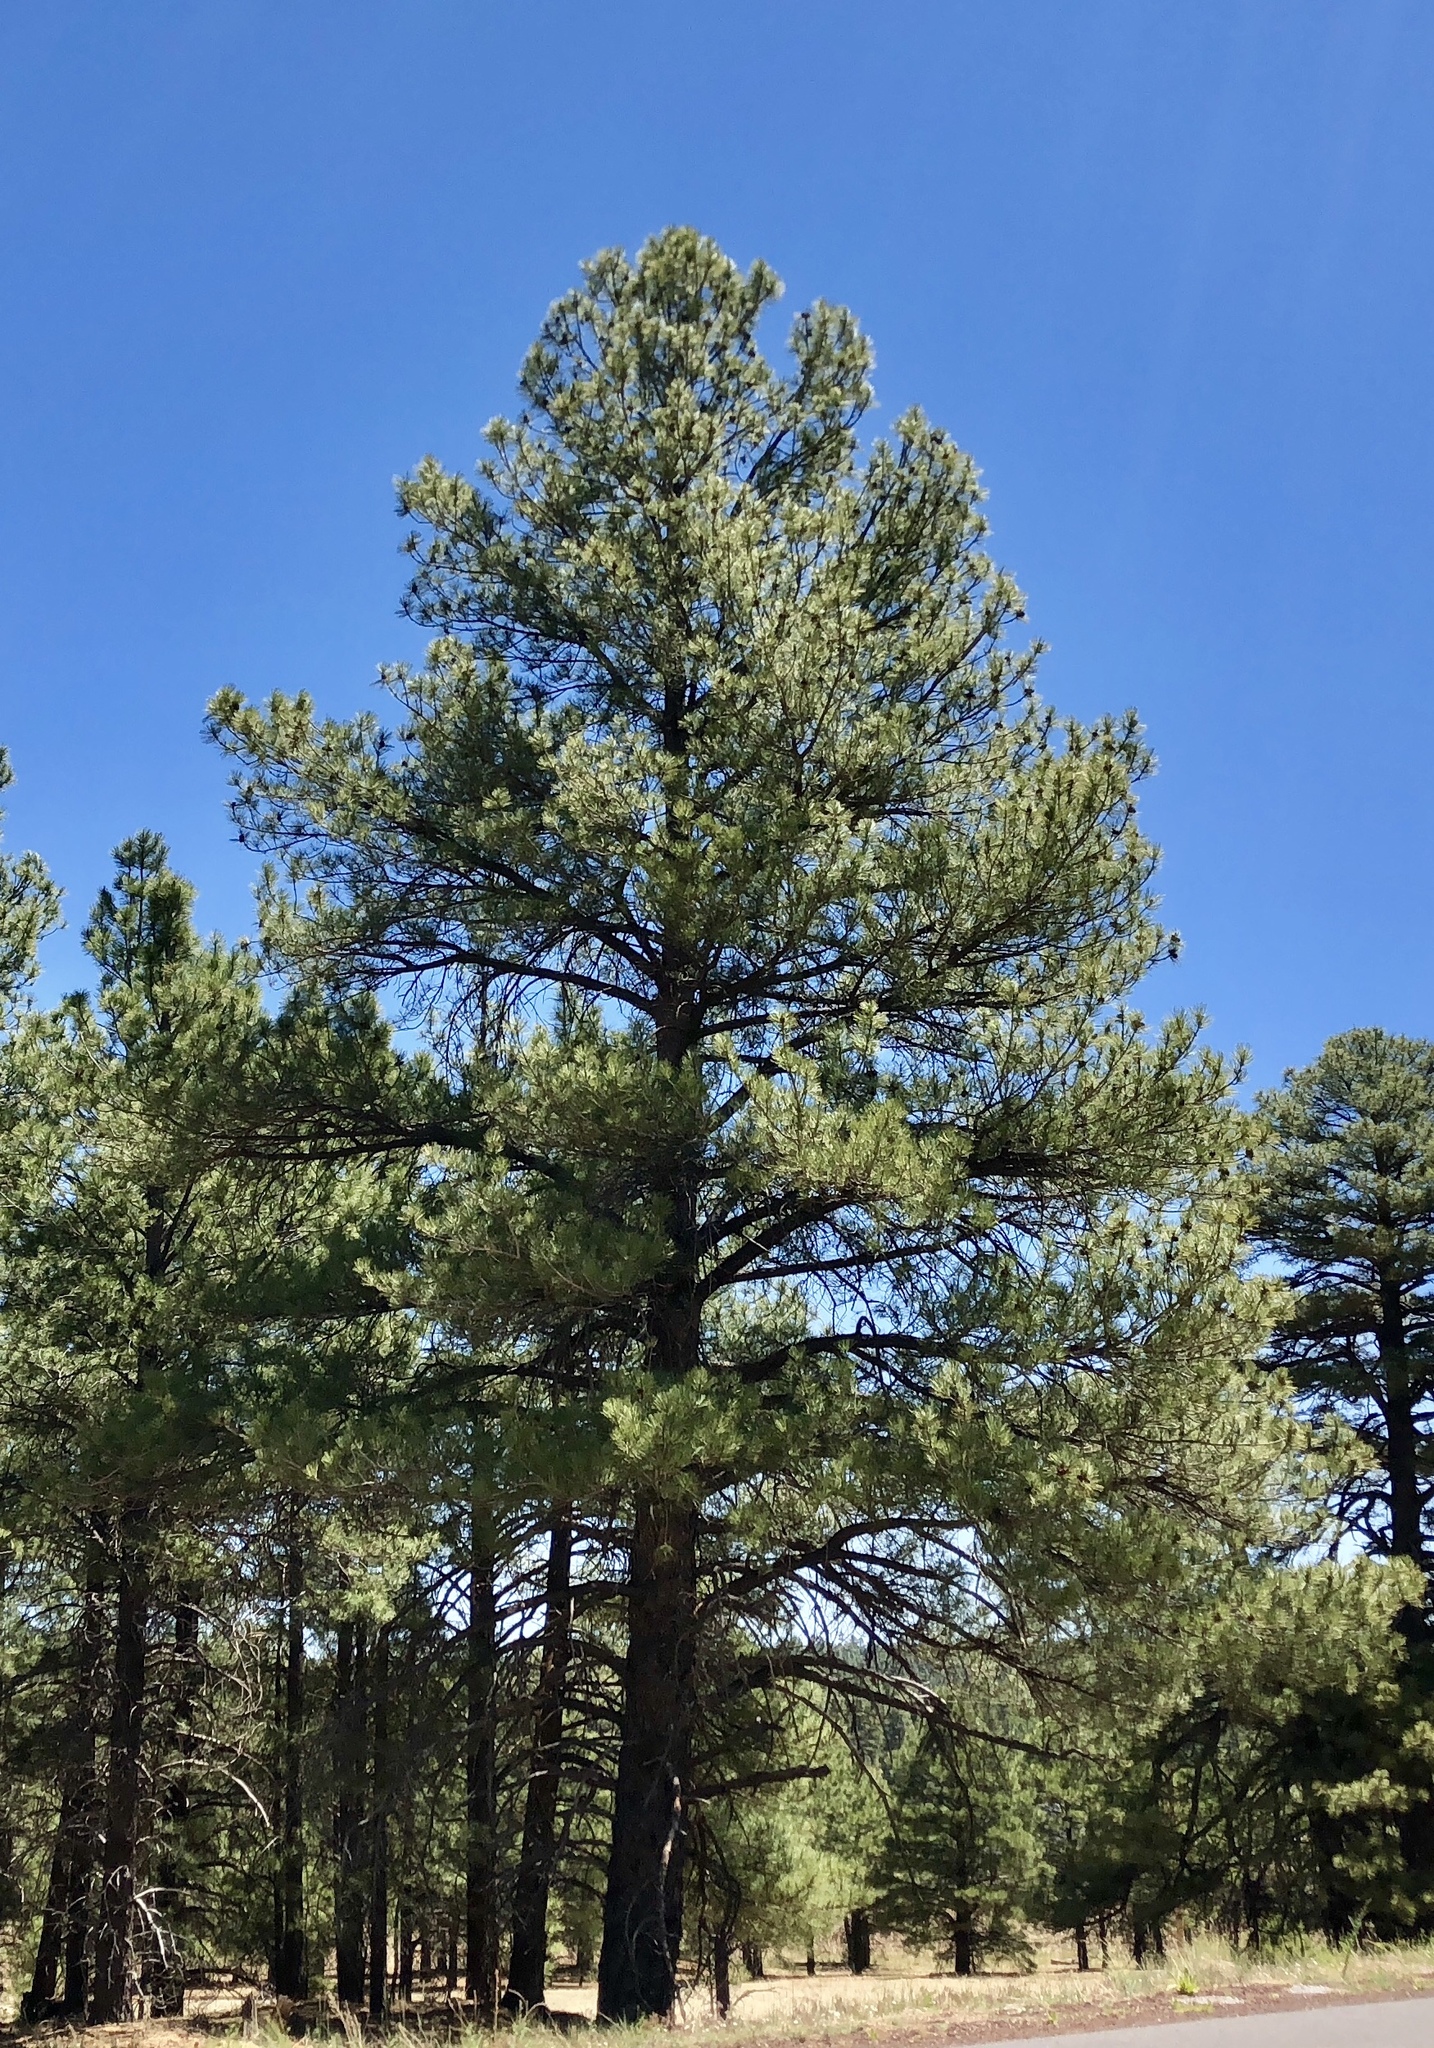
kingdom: Plantae
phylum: Tracheophyta
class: Pinopsida
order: Pinales
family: Pinaceae
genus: Pinus
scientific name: Pinus ponderosa
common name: Western yellow-pine
